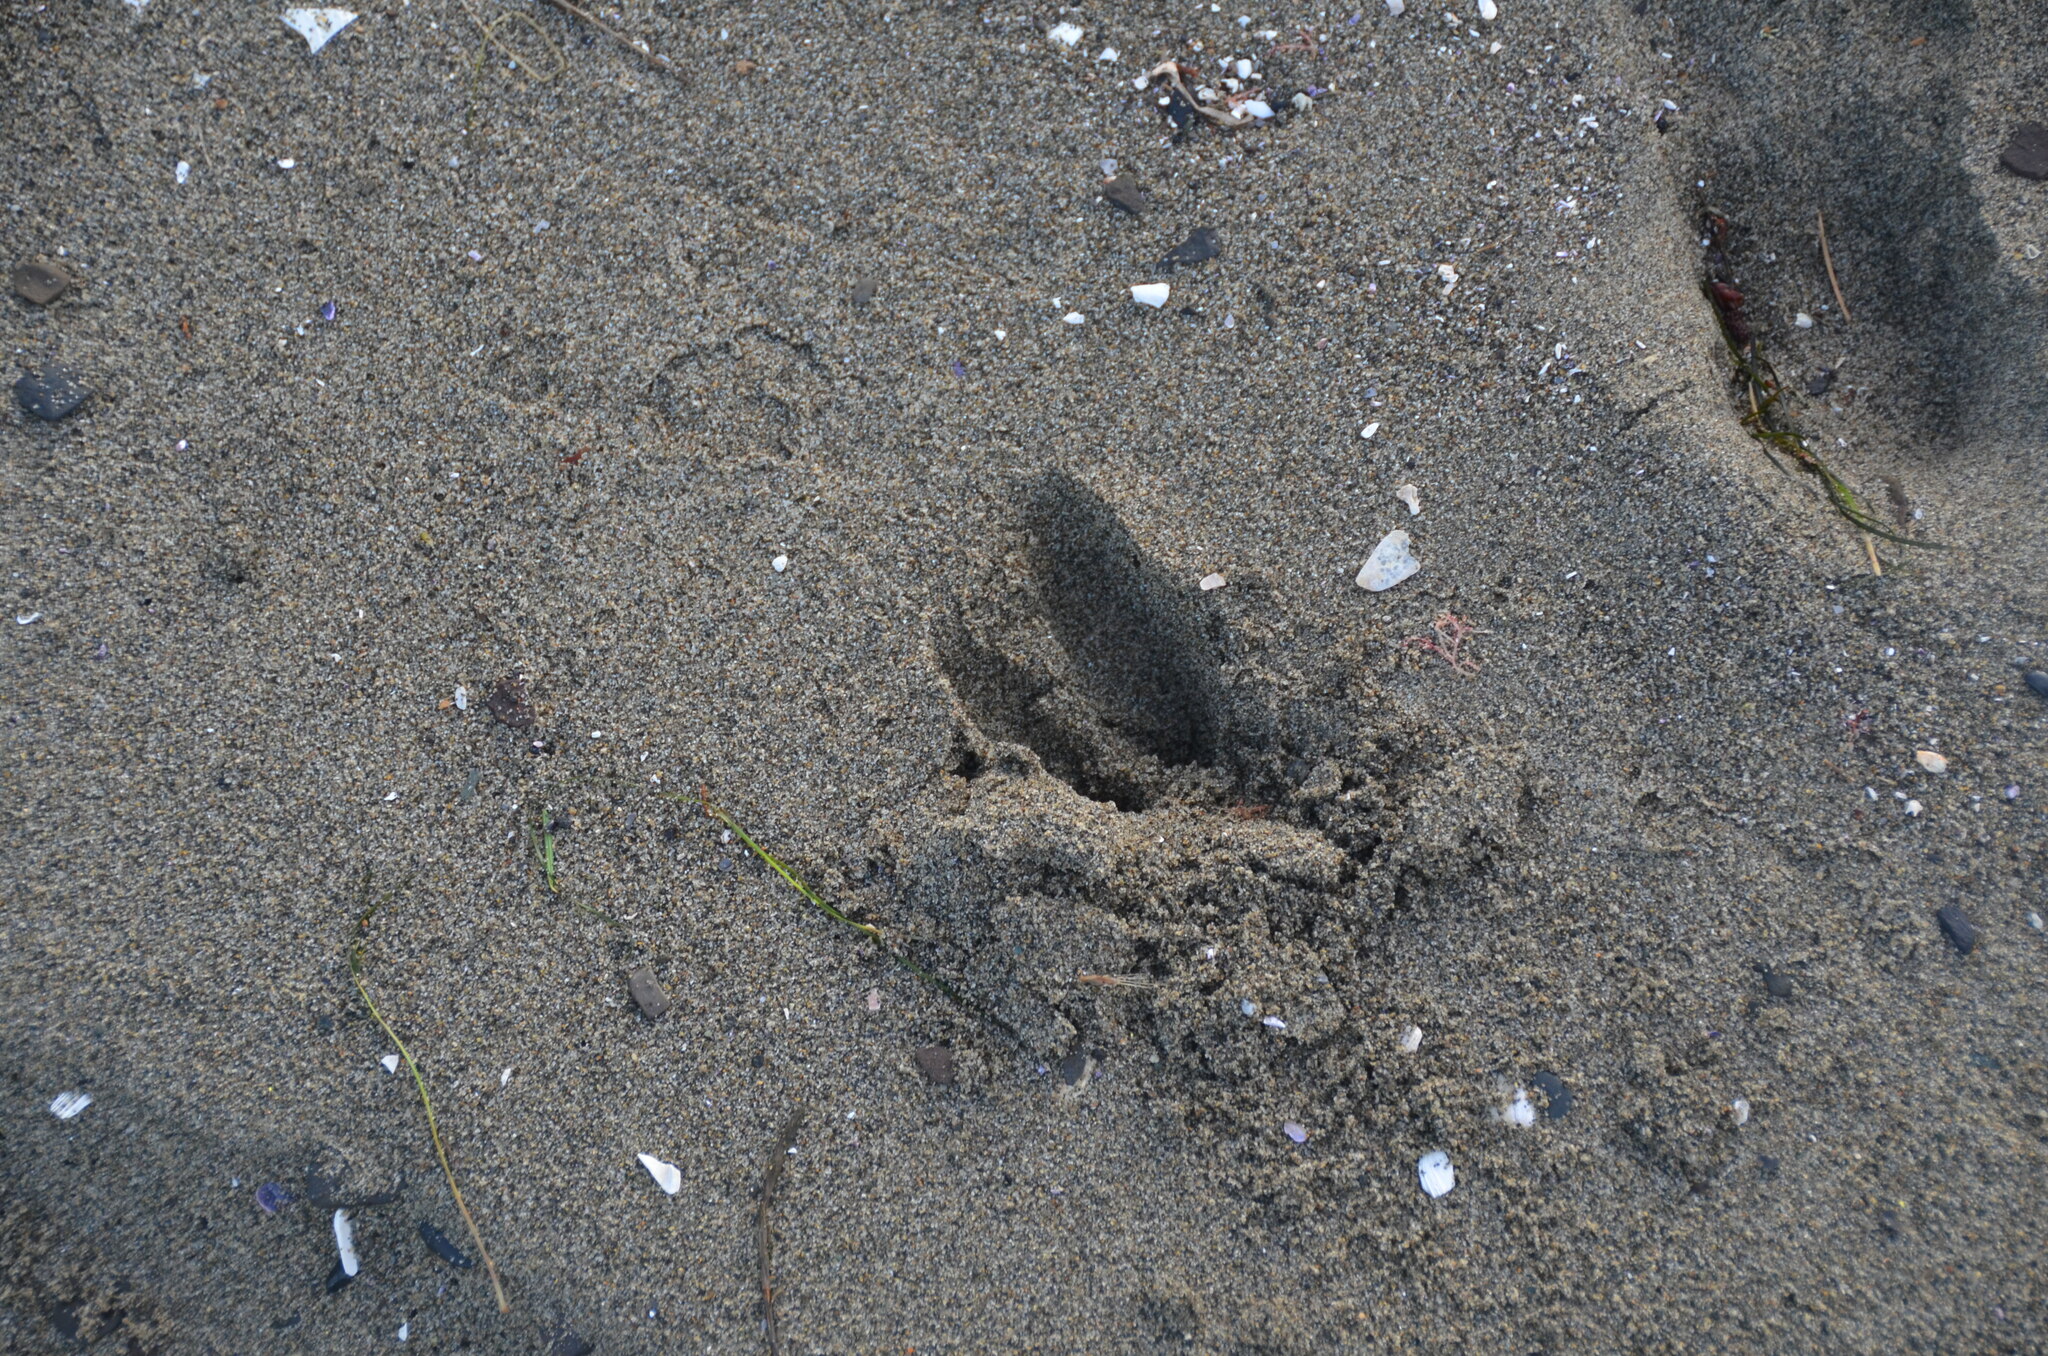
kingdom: Animalia
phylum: Chordata
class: Mammalia
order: Artiodactyla
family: Cervidae
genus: Odocoileus
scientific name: Odocoileus hemionus
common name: Mule deer
